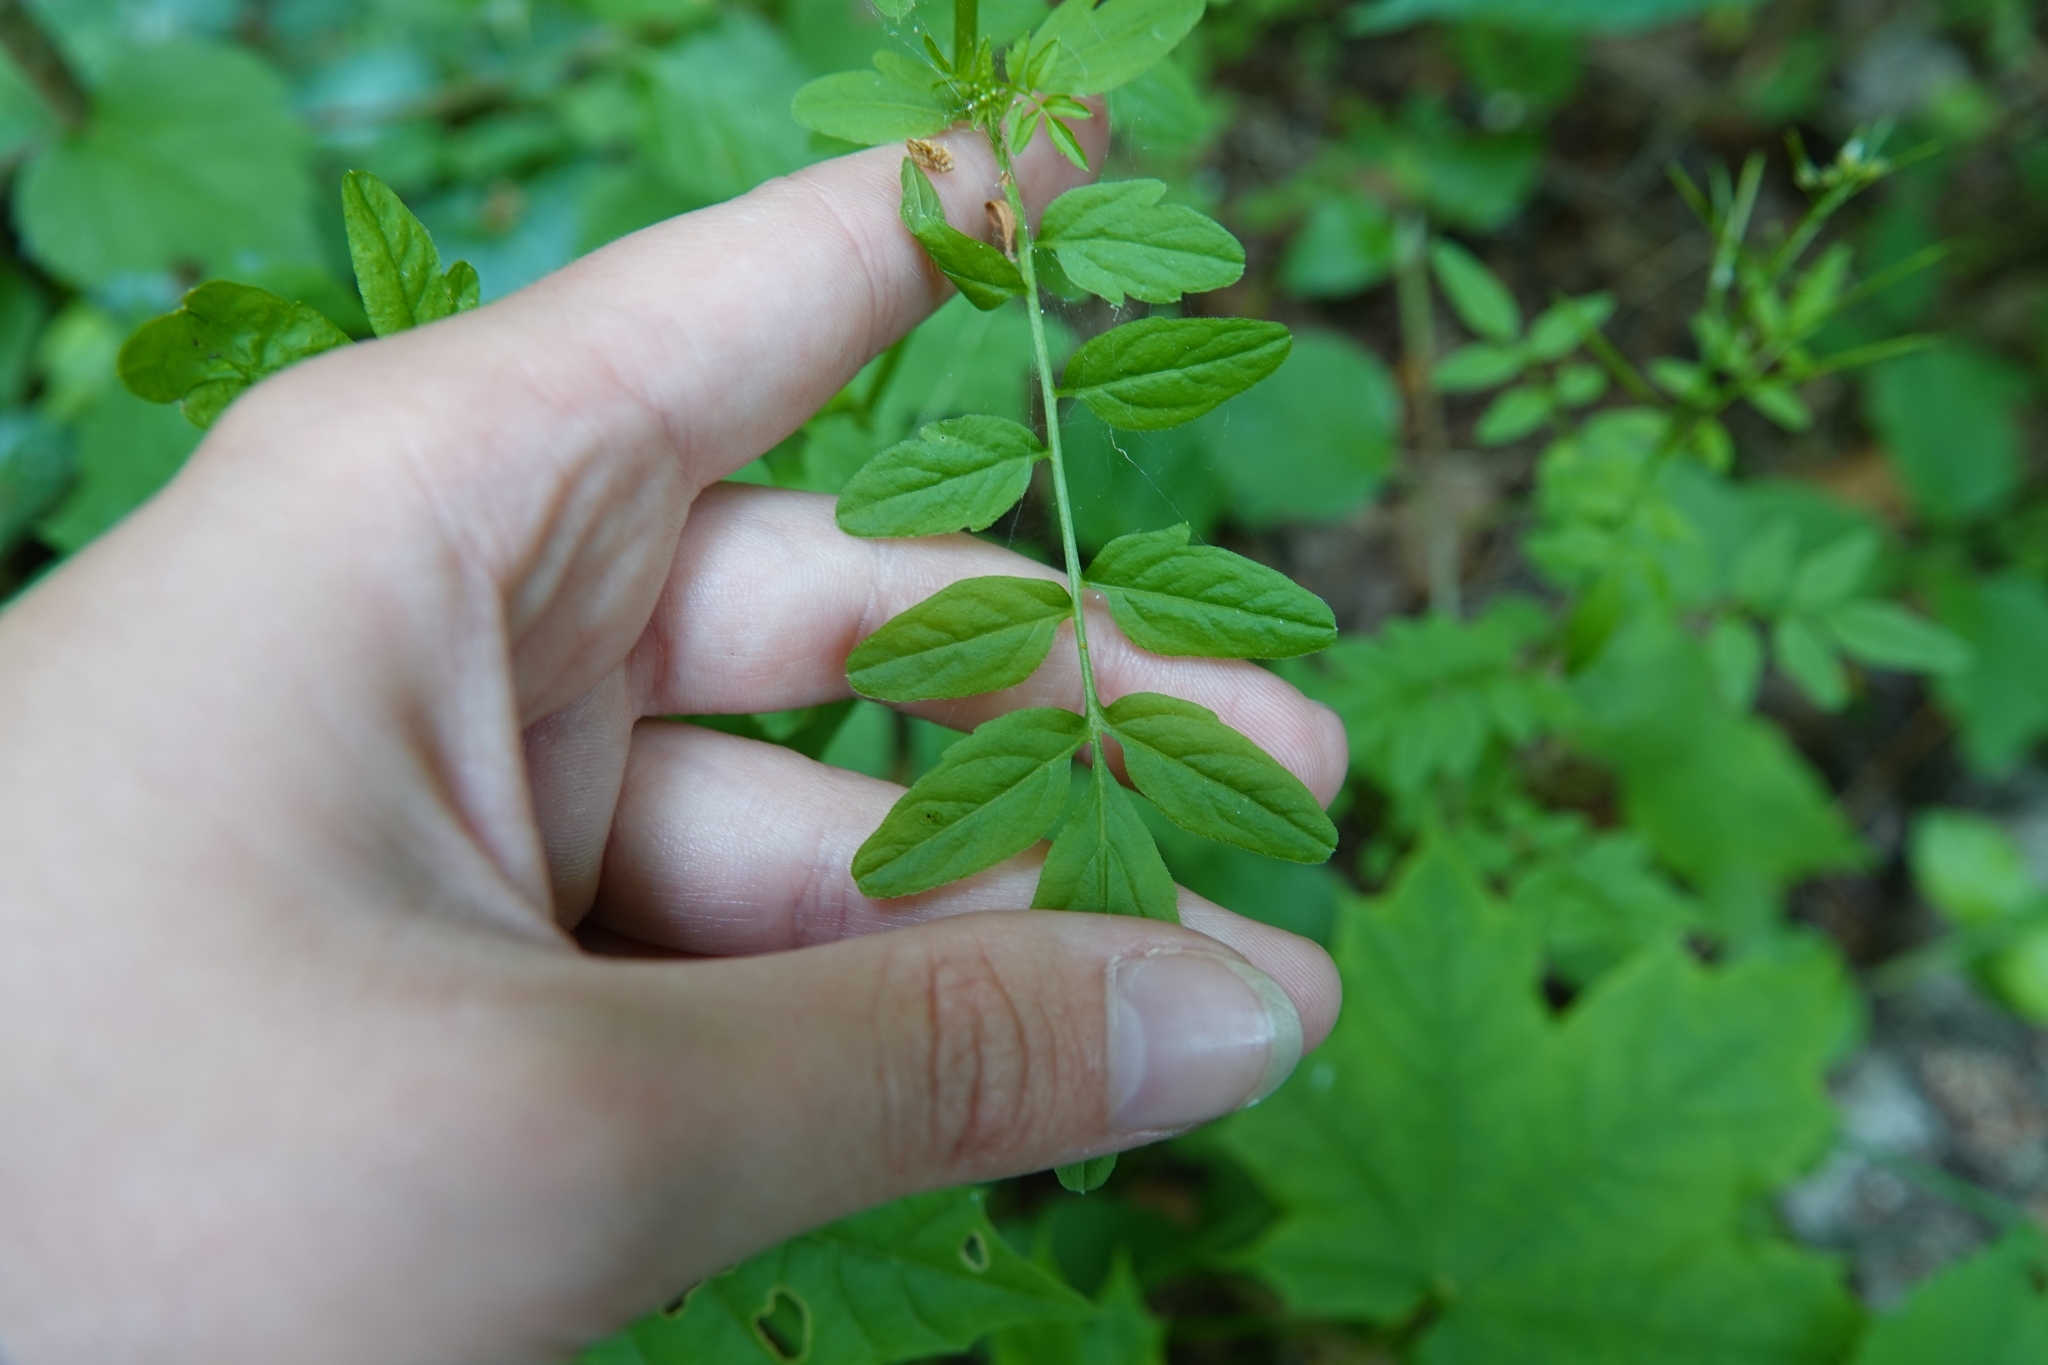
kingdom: Plantae
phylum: Tracheophyta
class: Magnoliopsida
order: Brassicales
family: Brassicaceae
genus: Cardamine
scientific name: Cardamine impatiens
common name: Narrow-leaved bitter-cress
